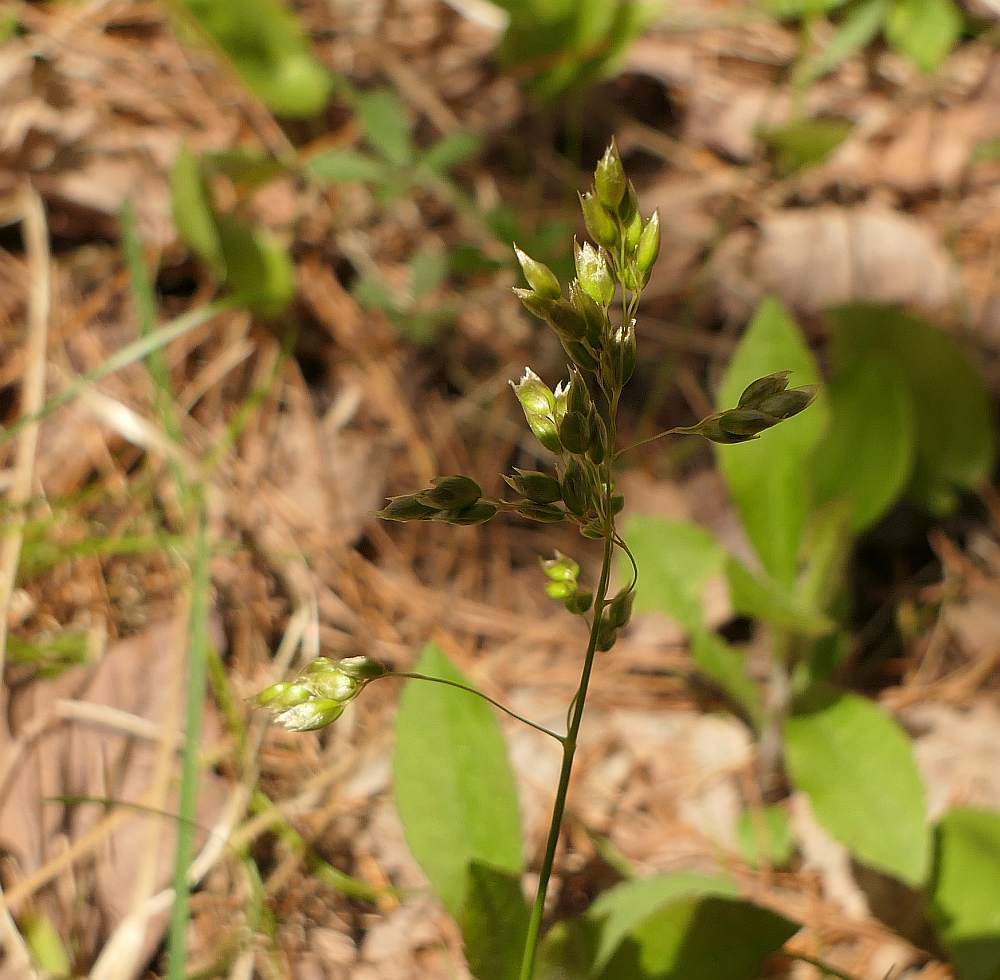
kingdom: Plantae
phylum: Tracheophyta
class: Liliopsida
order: Poales
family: Poaceae
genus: Anthoxanthum
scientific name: Anthoxanthum nitens
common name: Holy grass
